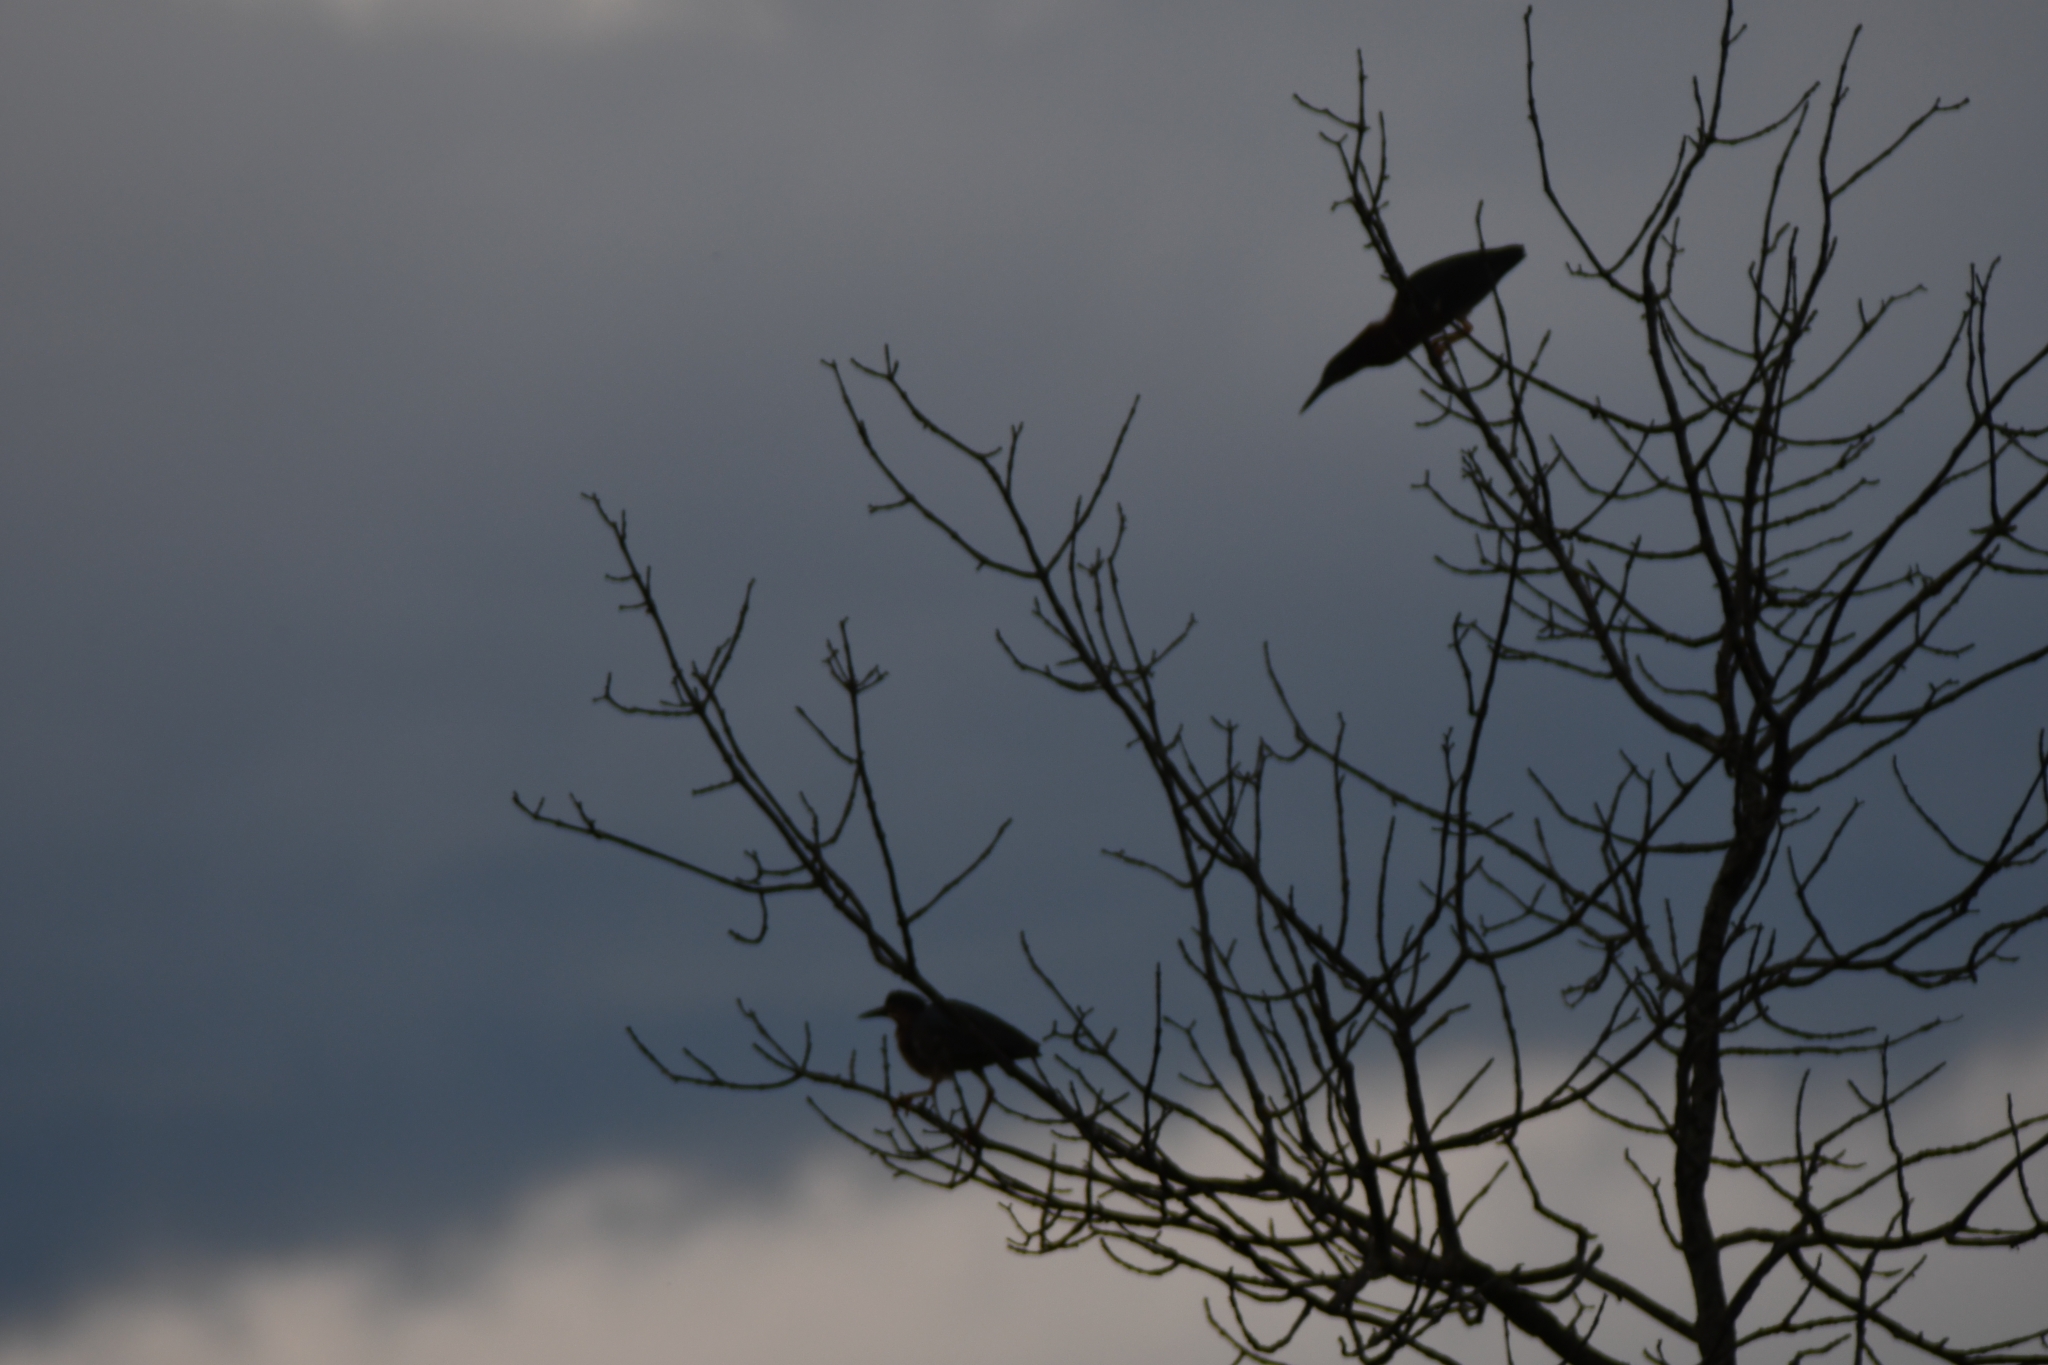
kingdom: Animalia
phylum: Chordata
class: Aves
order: Pelecaniformes
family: Ardeidae
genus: Butorides
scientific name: Butorides virescens
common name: Green heron
